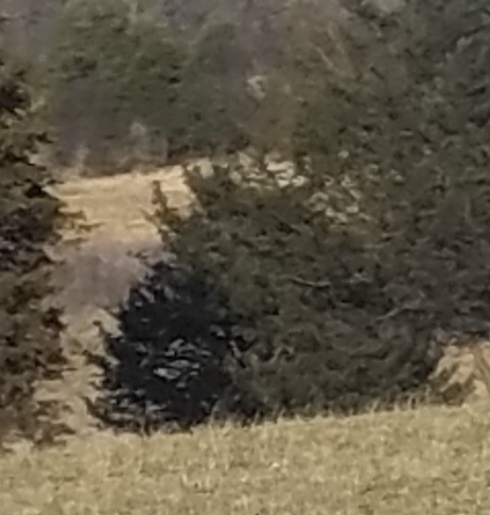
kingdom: Plantae
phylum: Tracheophyta
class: Pinopsida
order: Pinales
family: Cupressaceae
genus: Juniperus
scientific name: Juniperus virginiana
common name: Red juniper
